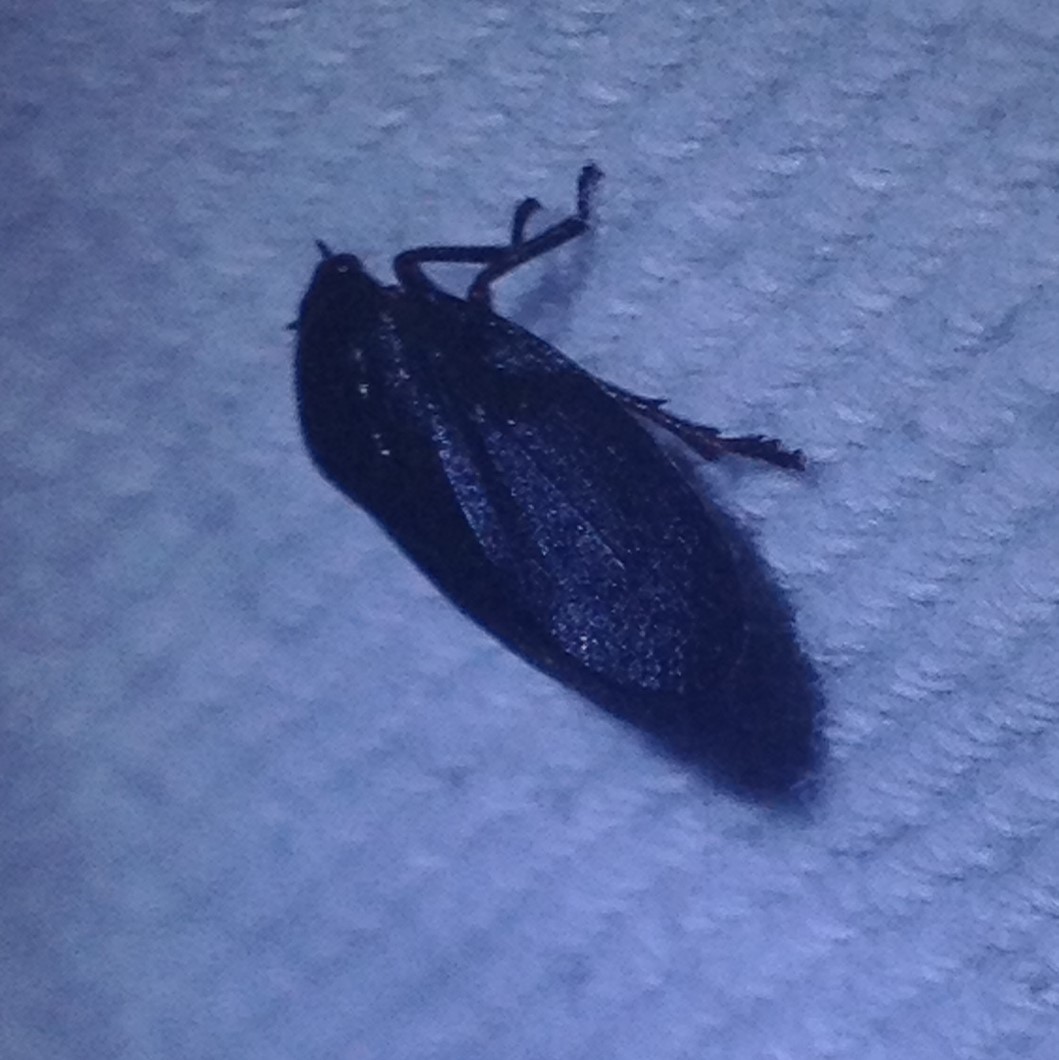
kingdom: Animalia
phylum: Arthropoda
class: Insecta
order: Hemiptera
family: Cercopidae
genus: Prosapia
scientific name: Prosapia ignipectus
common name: Black spittlebug
